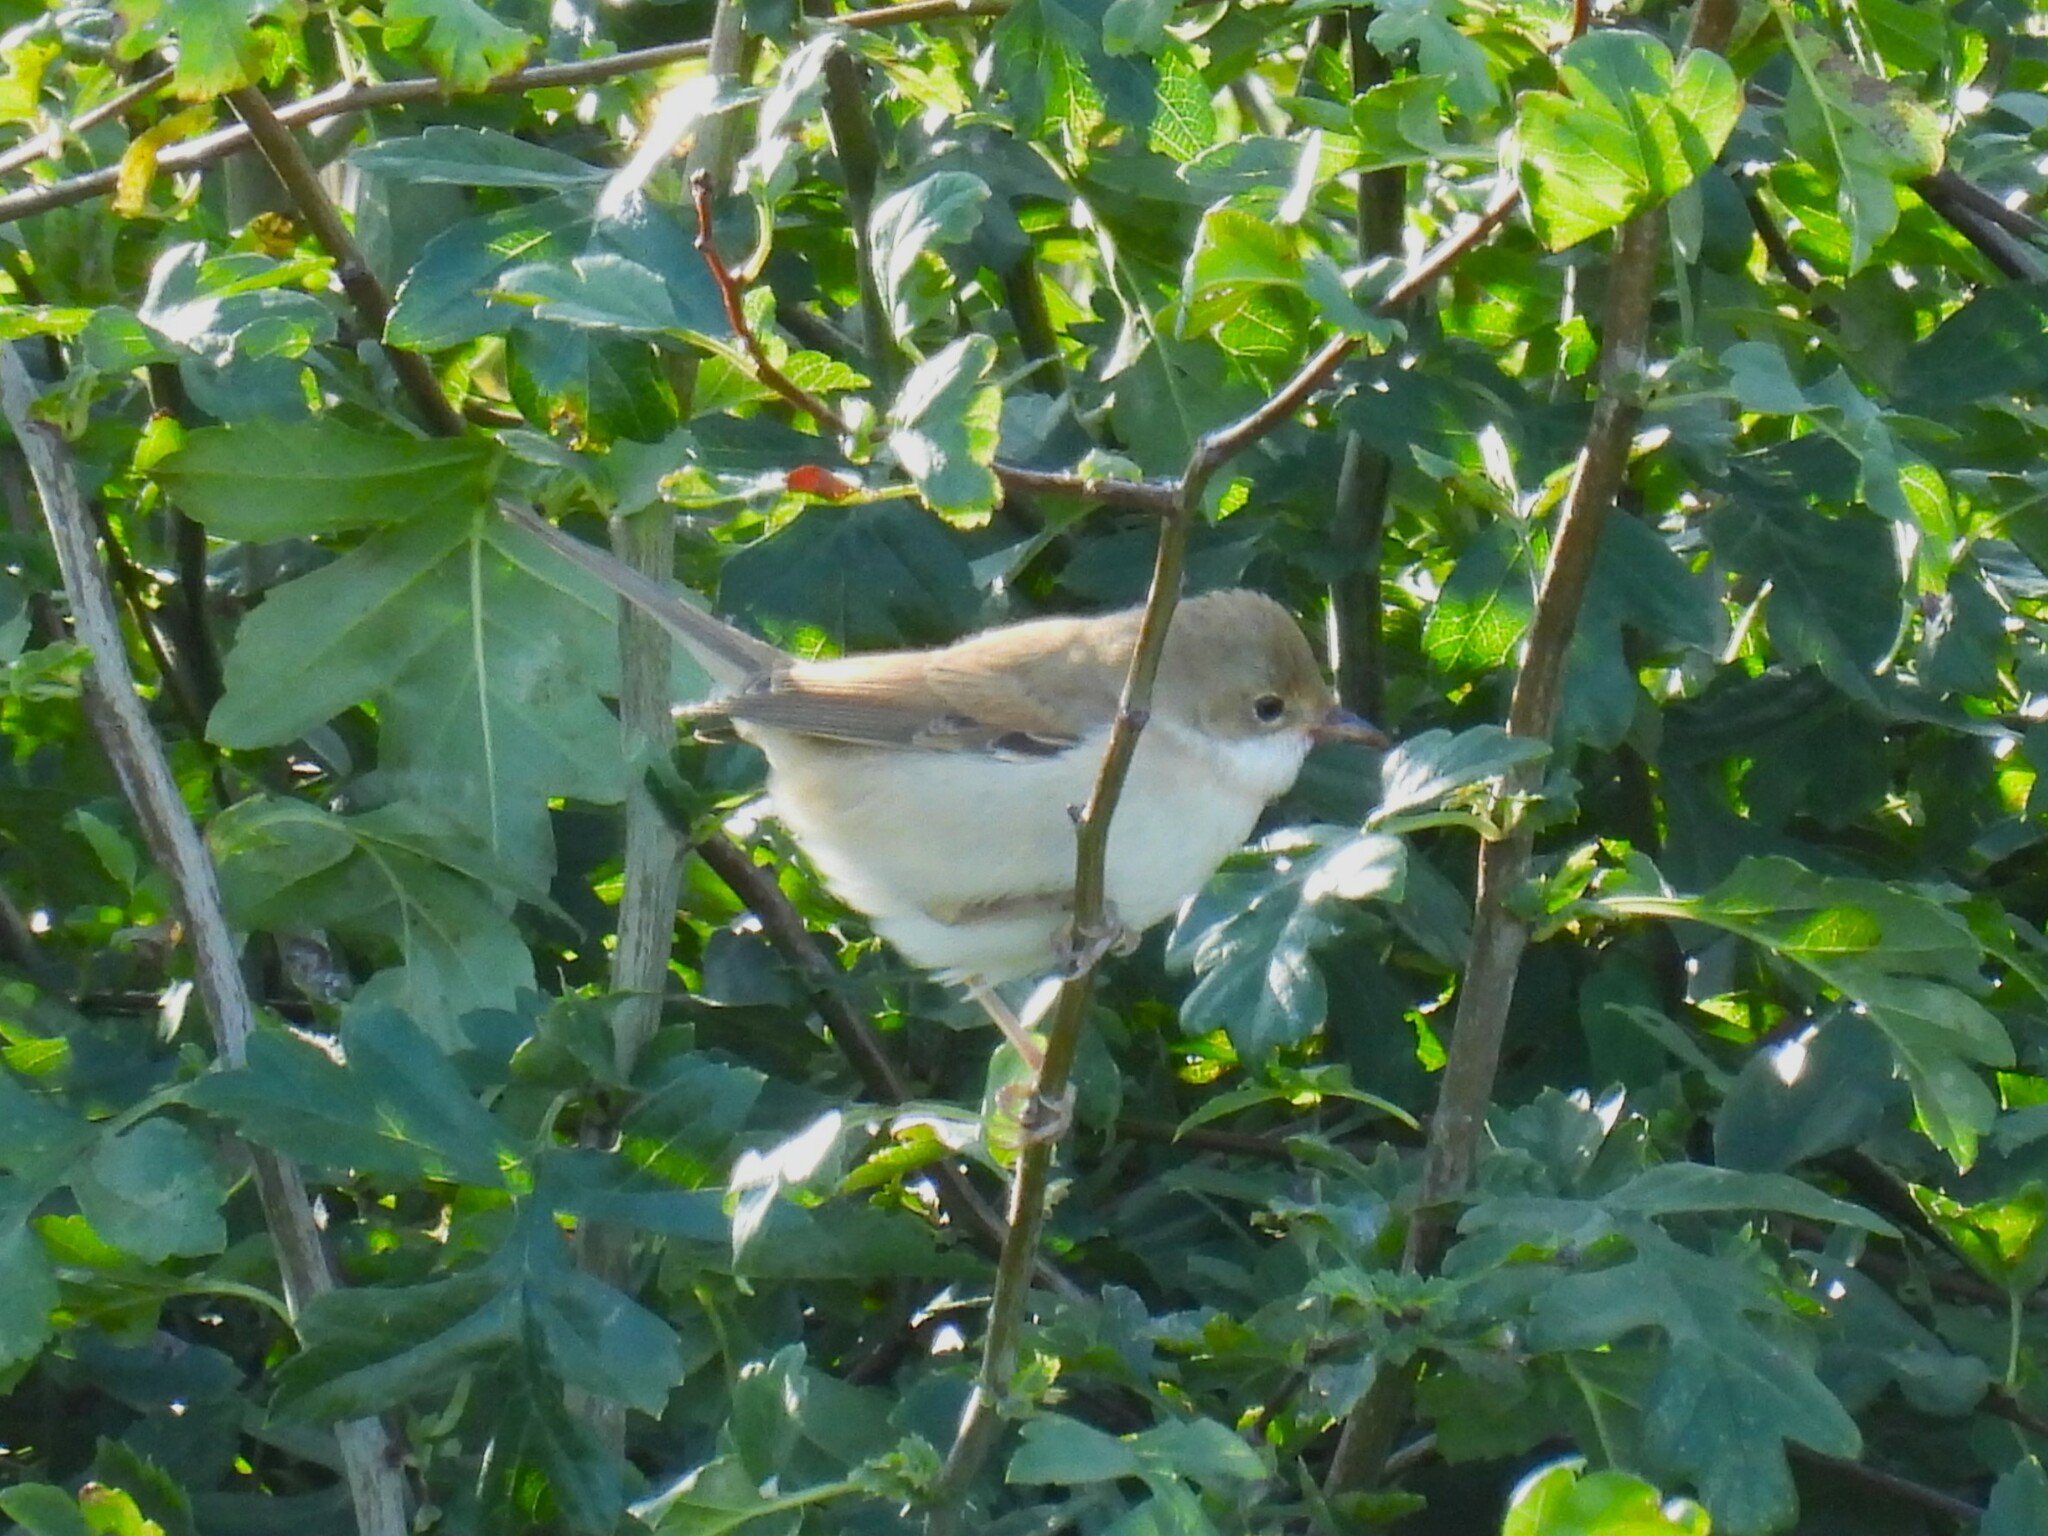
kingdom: Animalia
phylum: Chordata
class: Aves
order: Passeriformes
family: Sylviidae
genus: Sylvia
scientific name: Sylvia communis
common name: Common whitethroat
